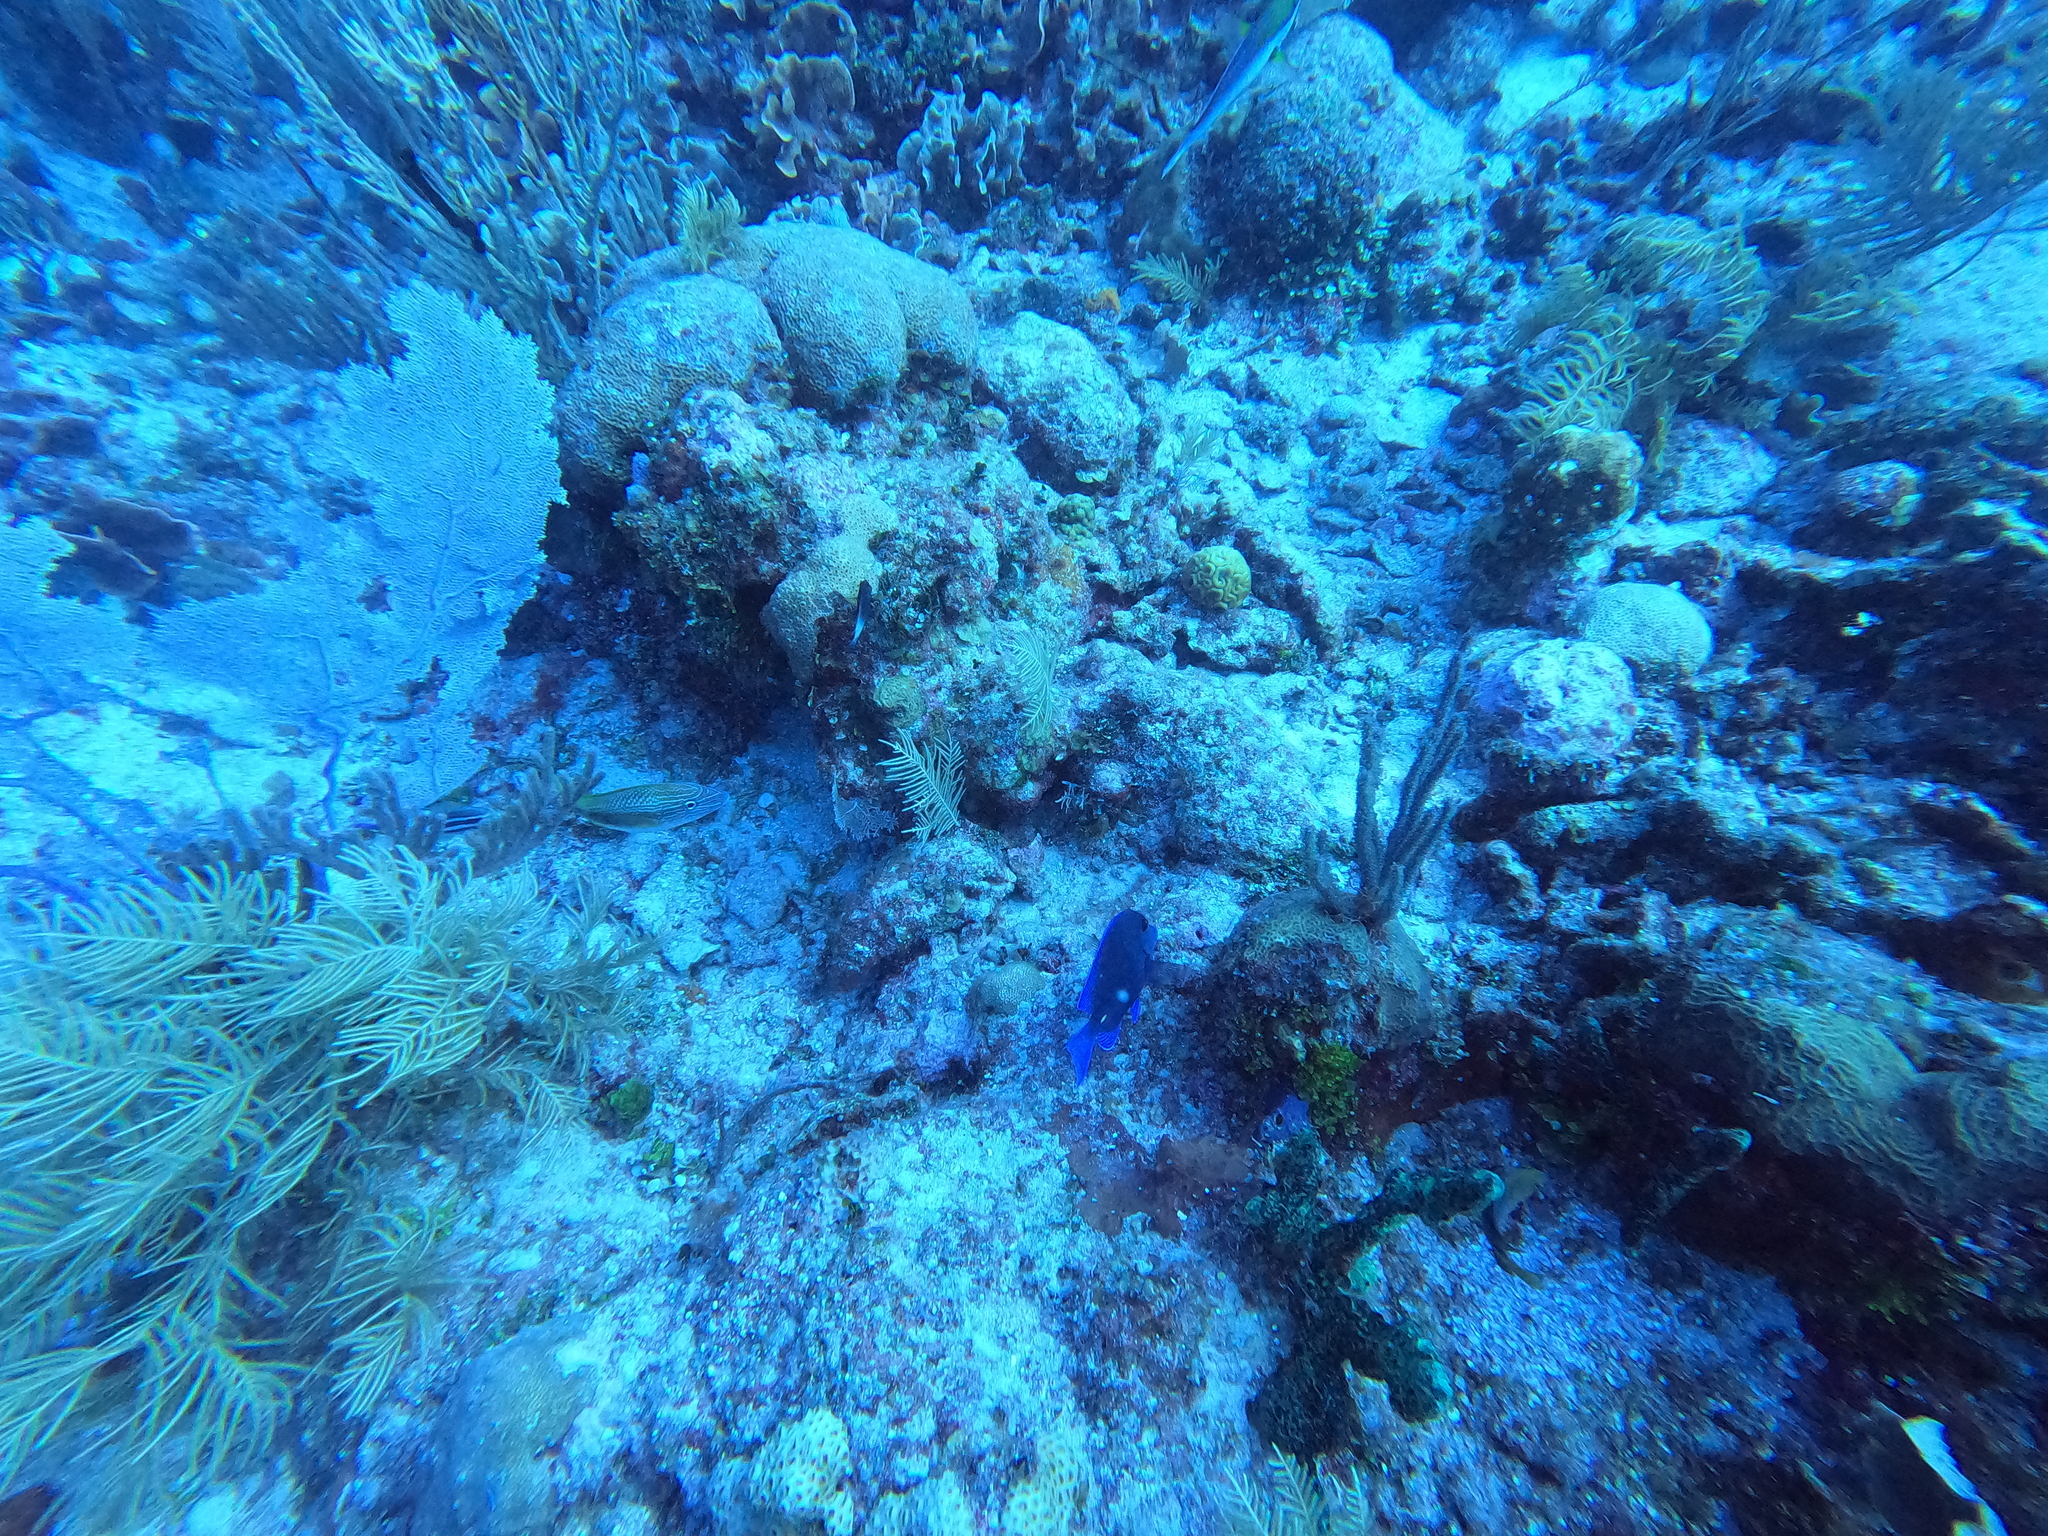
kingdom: Animalia
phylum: Chordata
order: Perciformes
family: Acanthuridae
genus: Acanthurus
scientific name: Acanthurus coeruleus
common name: Blue tang
